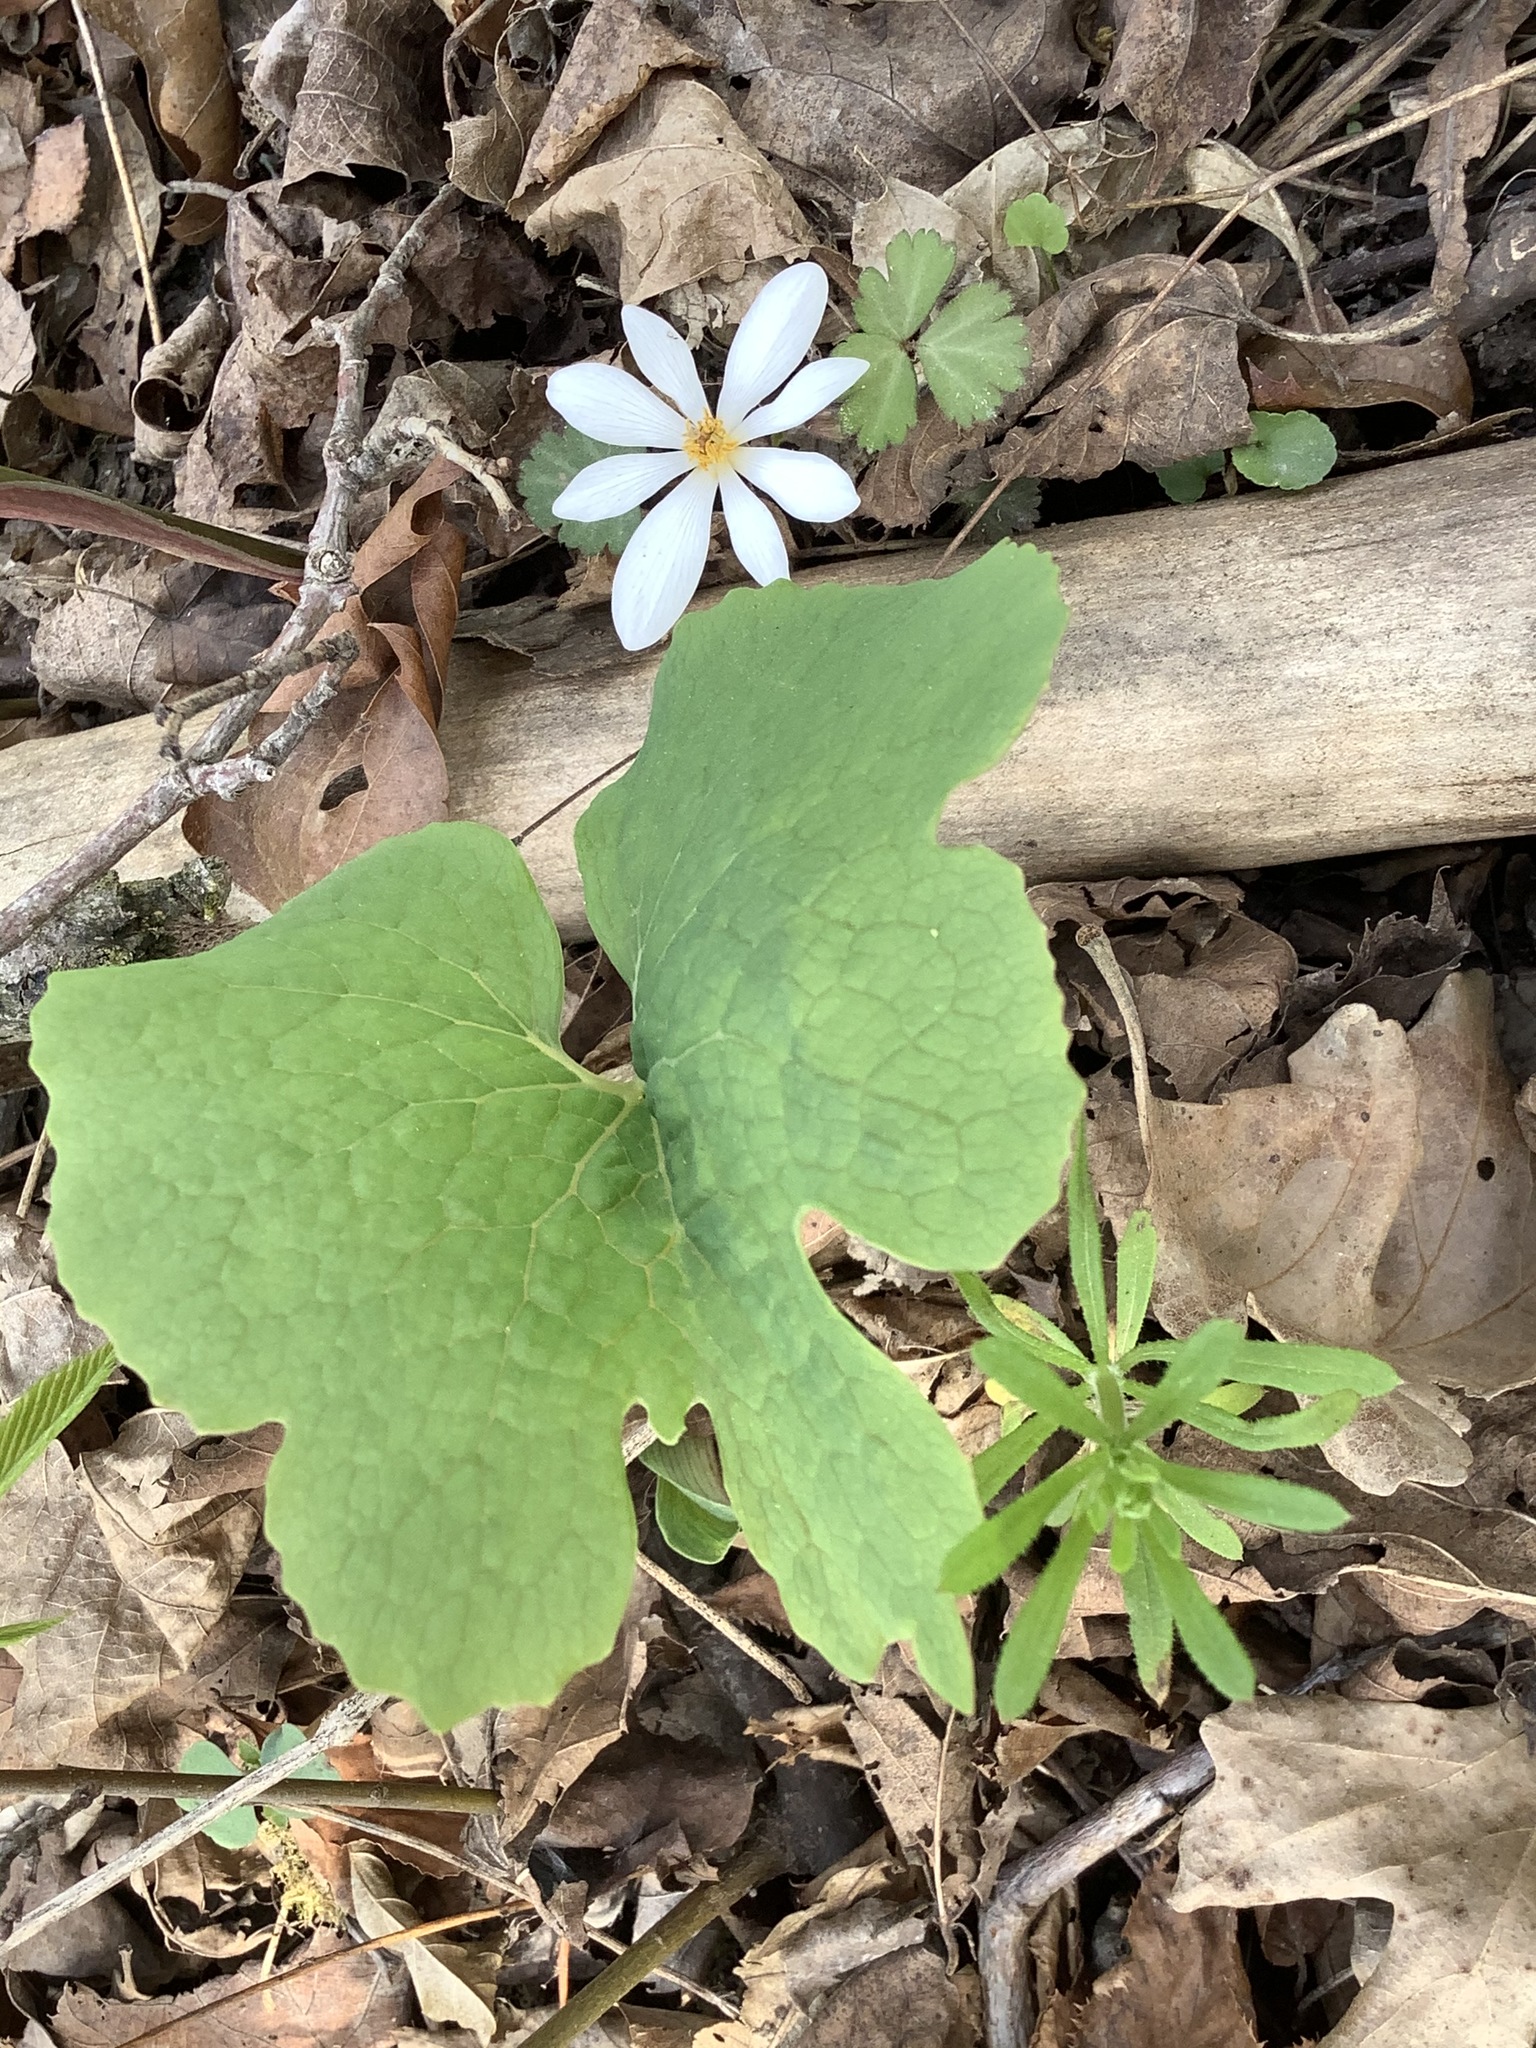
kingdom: Plantae
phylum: Tracheophyta
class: Magnoliopsida
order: Ranunculales
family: Papaveraceae
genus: Sanguinaria
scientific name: Sanguinaria canadensis
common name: Bloodroot
